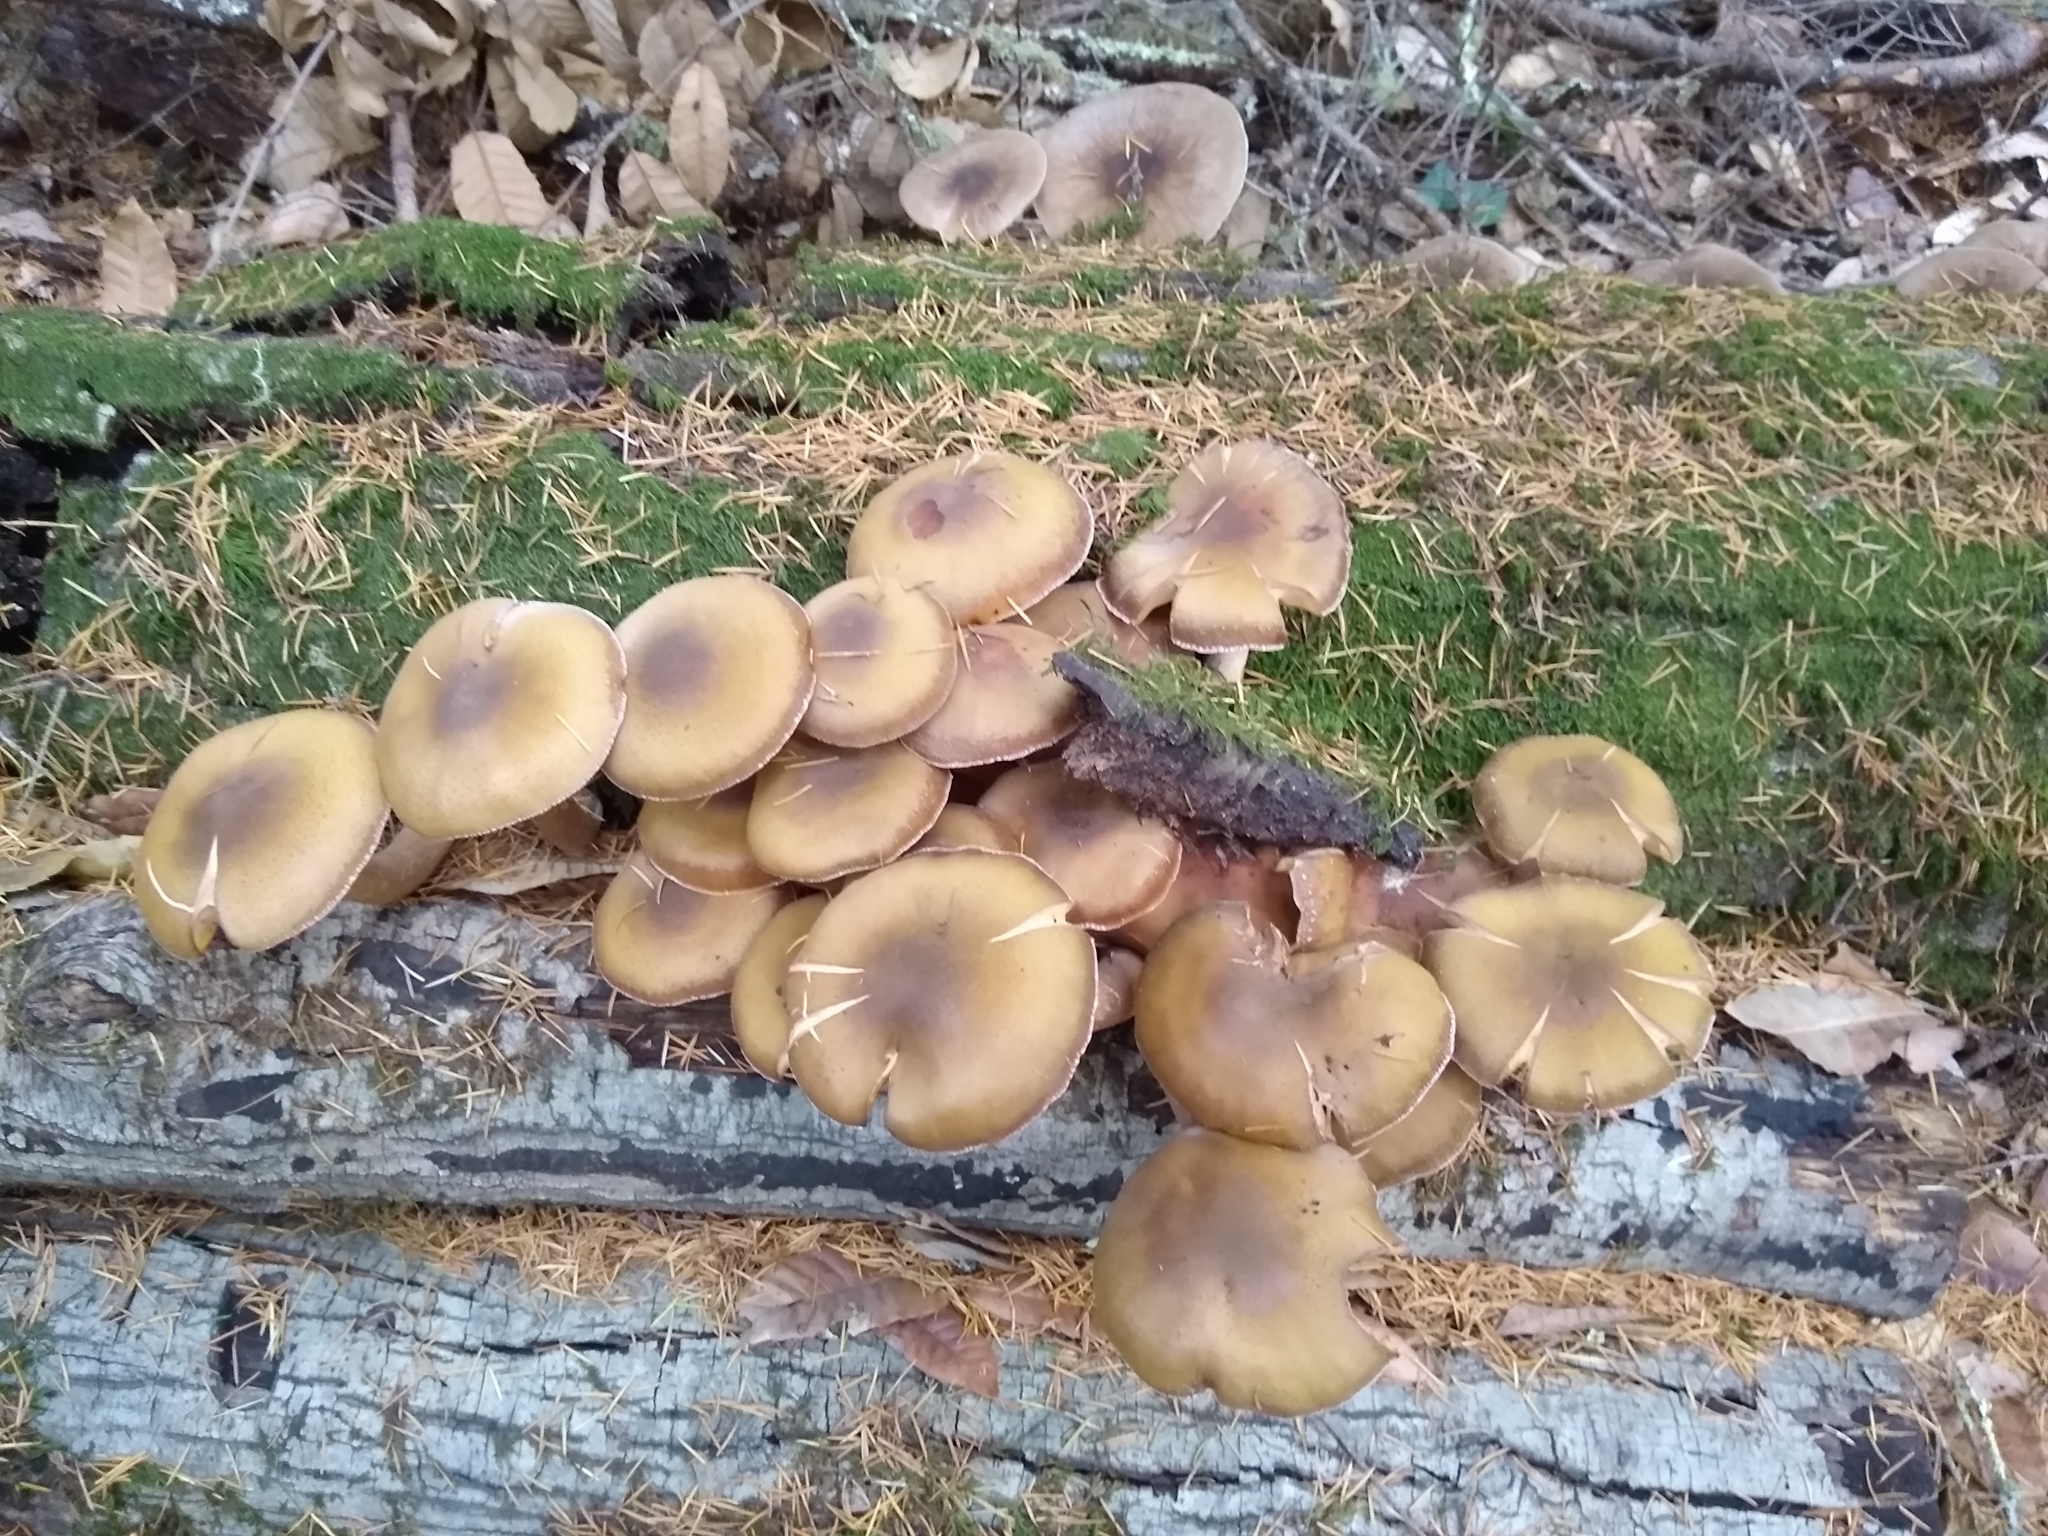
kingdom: Fungi
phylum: Basidiomycota
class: Agaricomycetes
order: Agaricales
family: Physalacriaceae
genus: Armillaria
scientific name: Armillaria mellea
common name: Honey fungus
